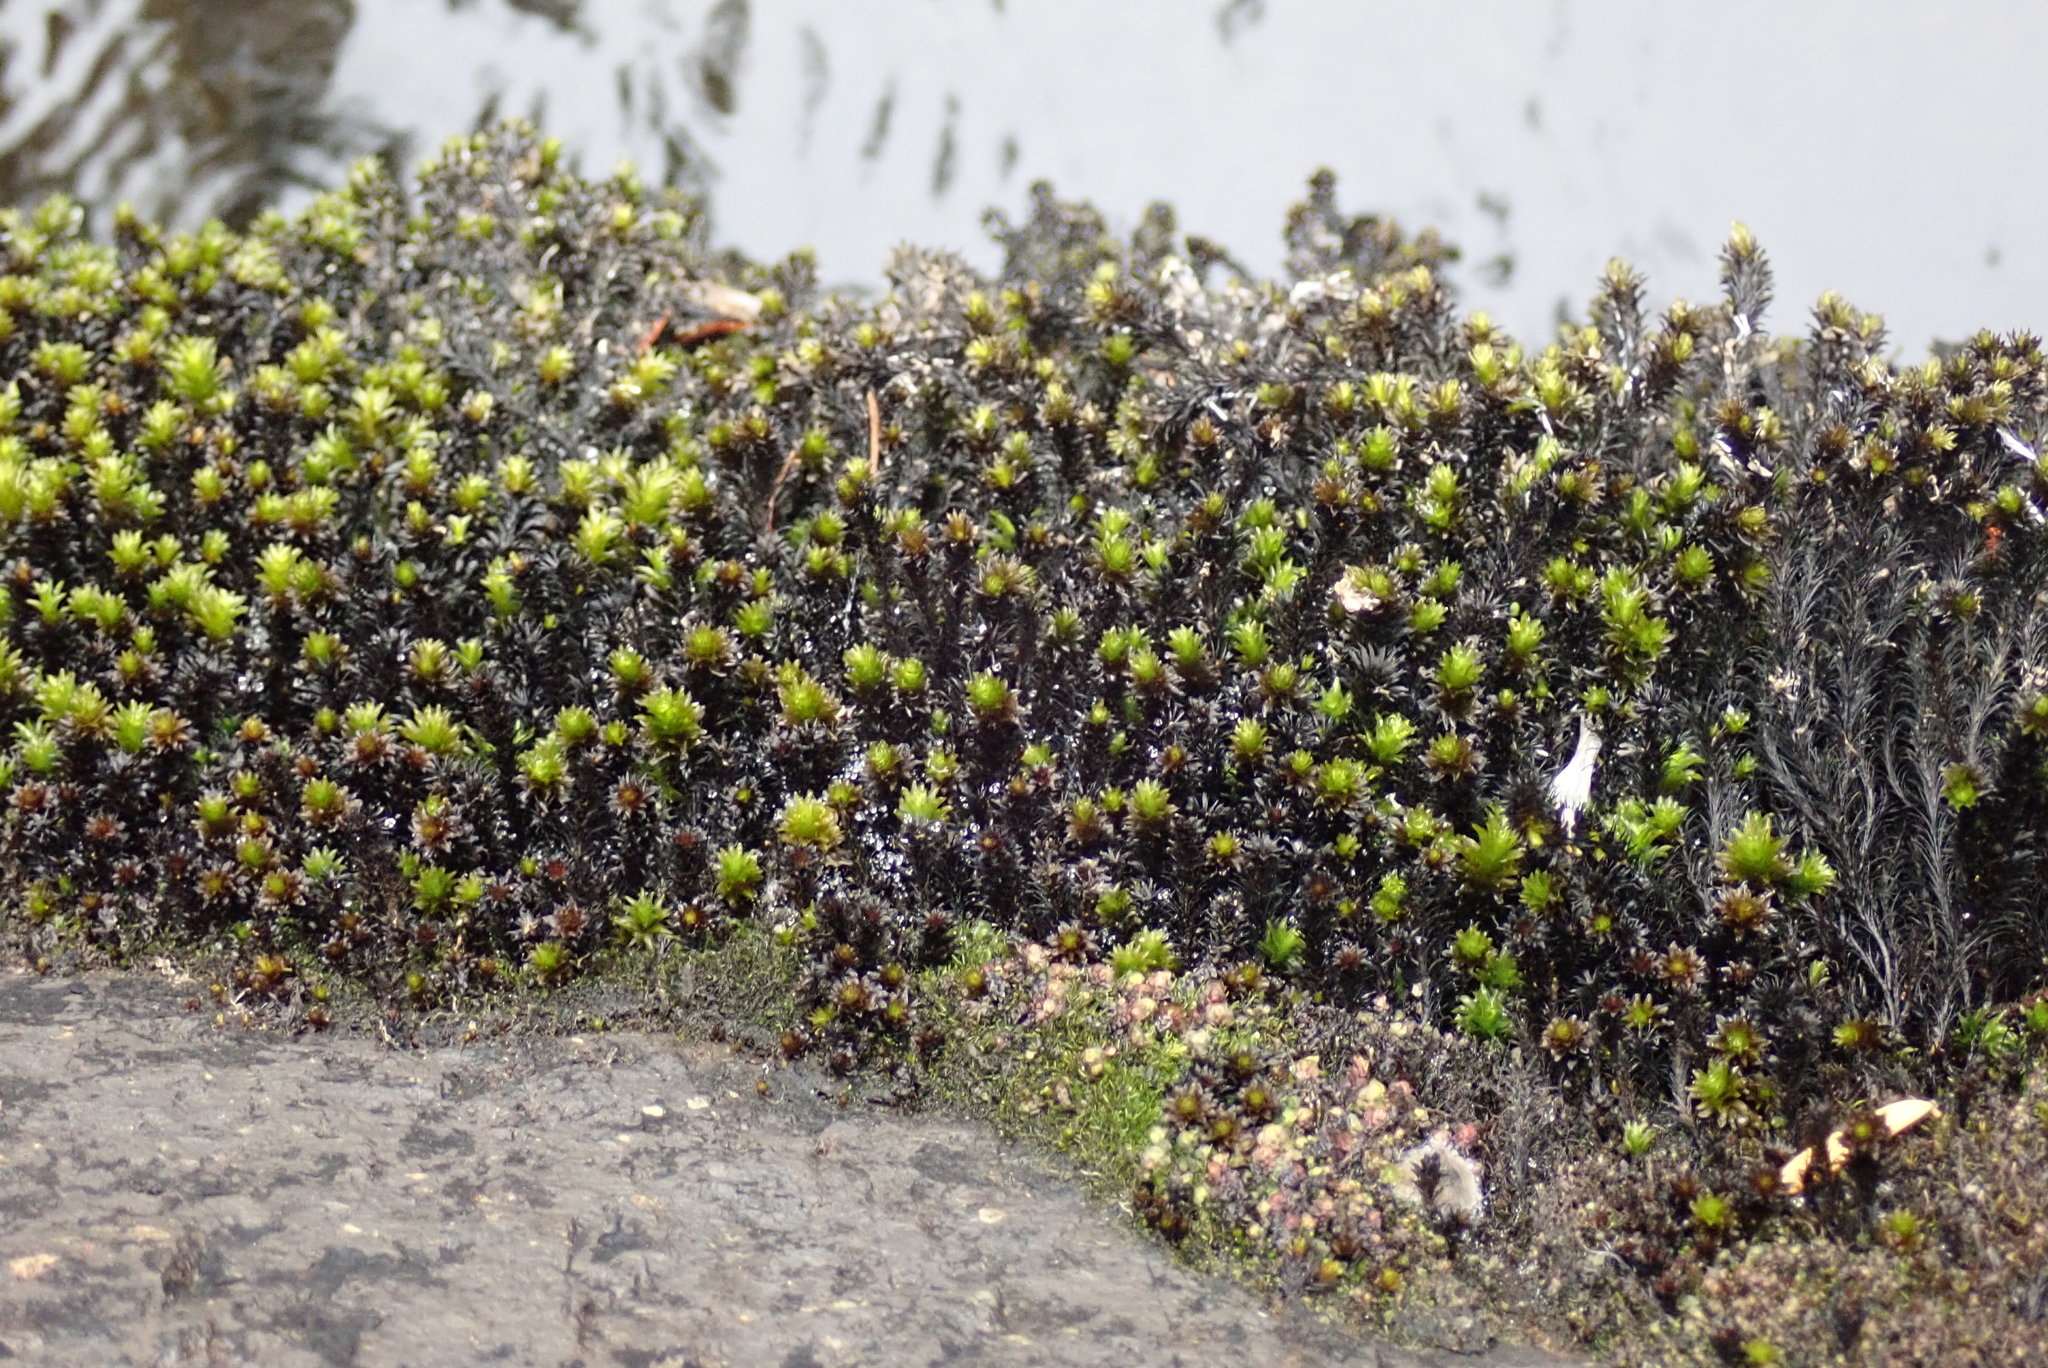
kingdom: Plantae
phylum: Bryophyta
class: Bryopsida
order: Scouleriales
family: Scouleriaceae
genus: Scouleria
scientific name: Scouleria aquatica
